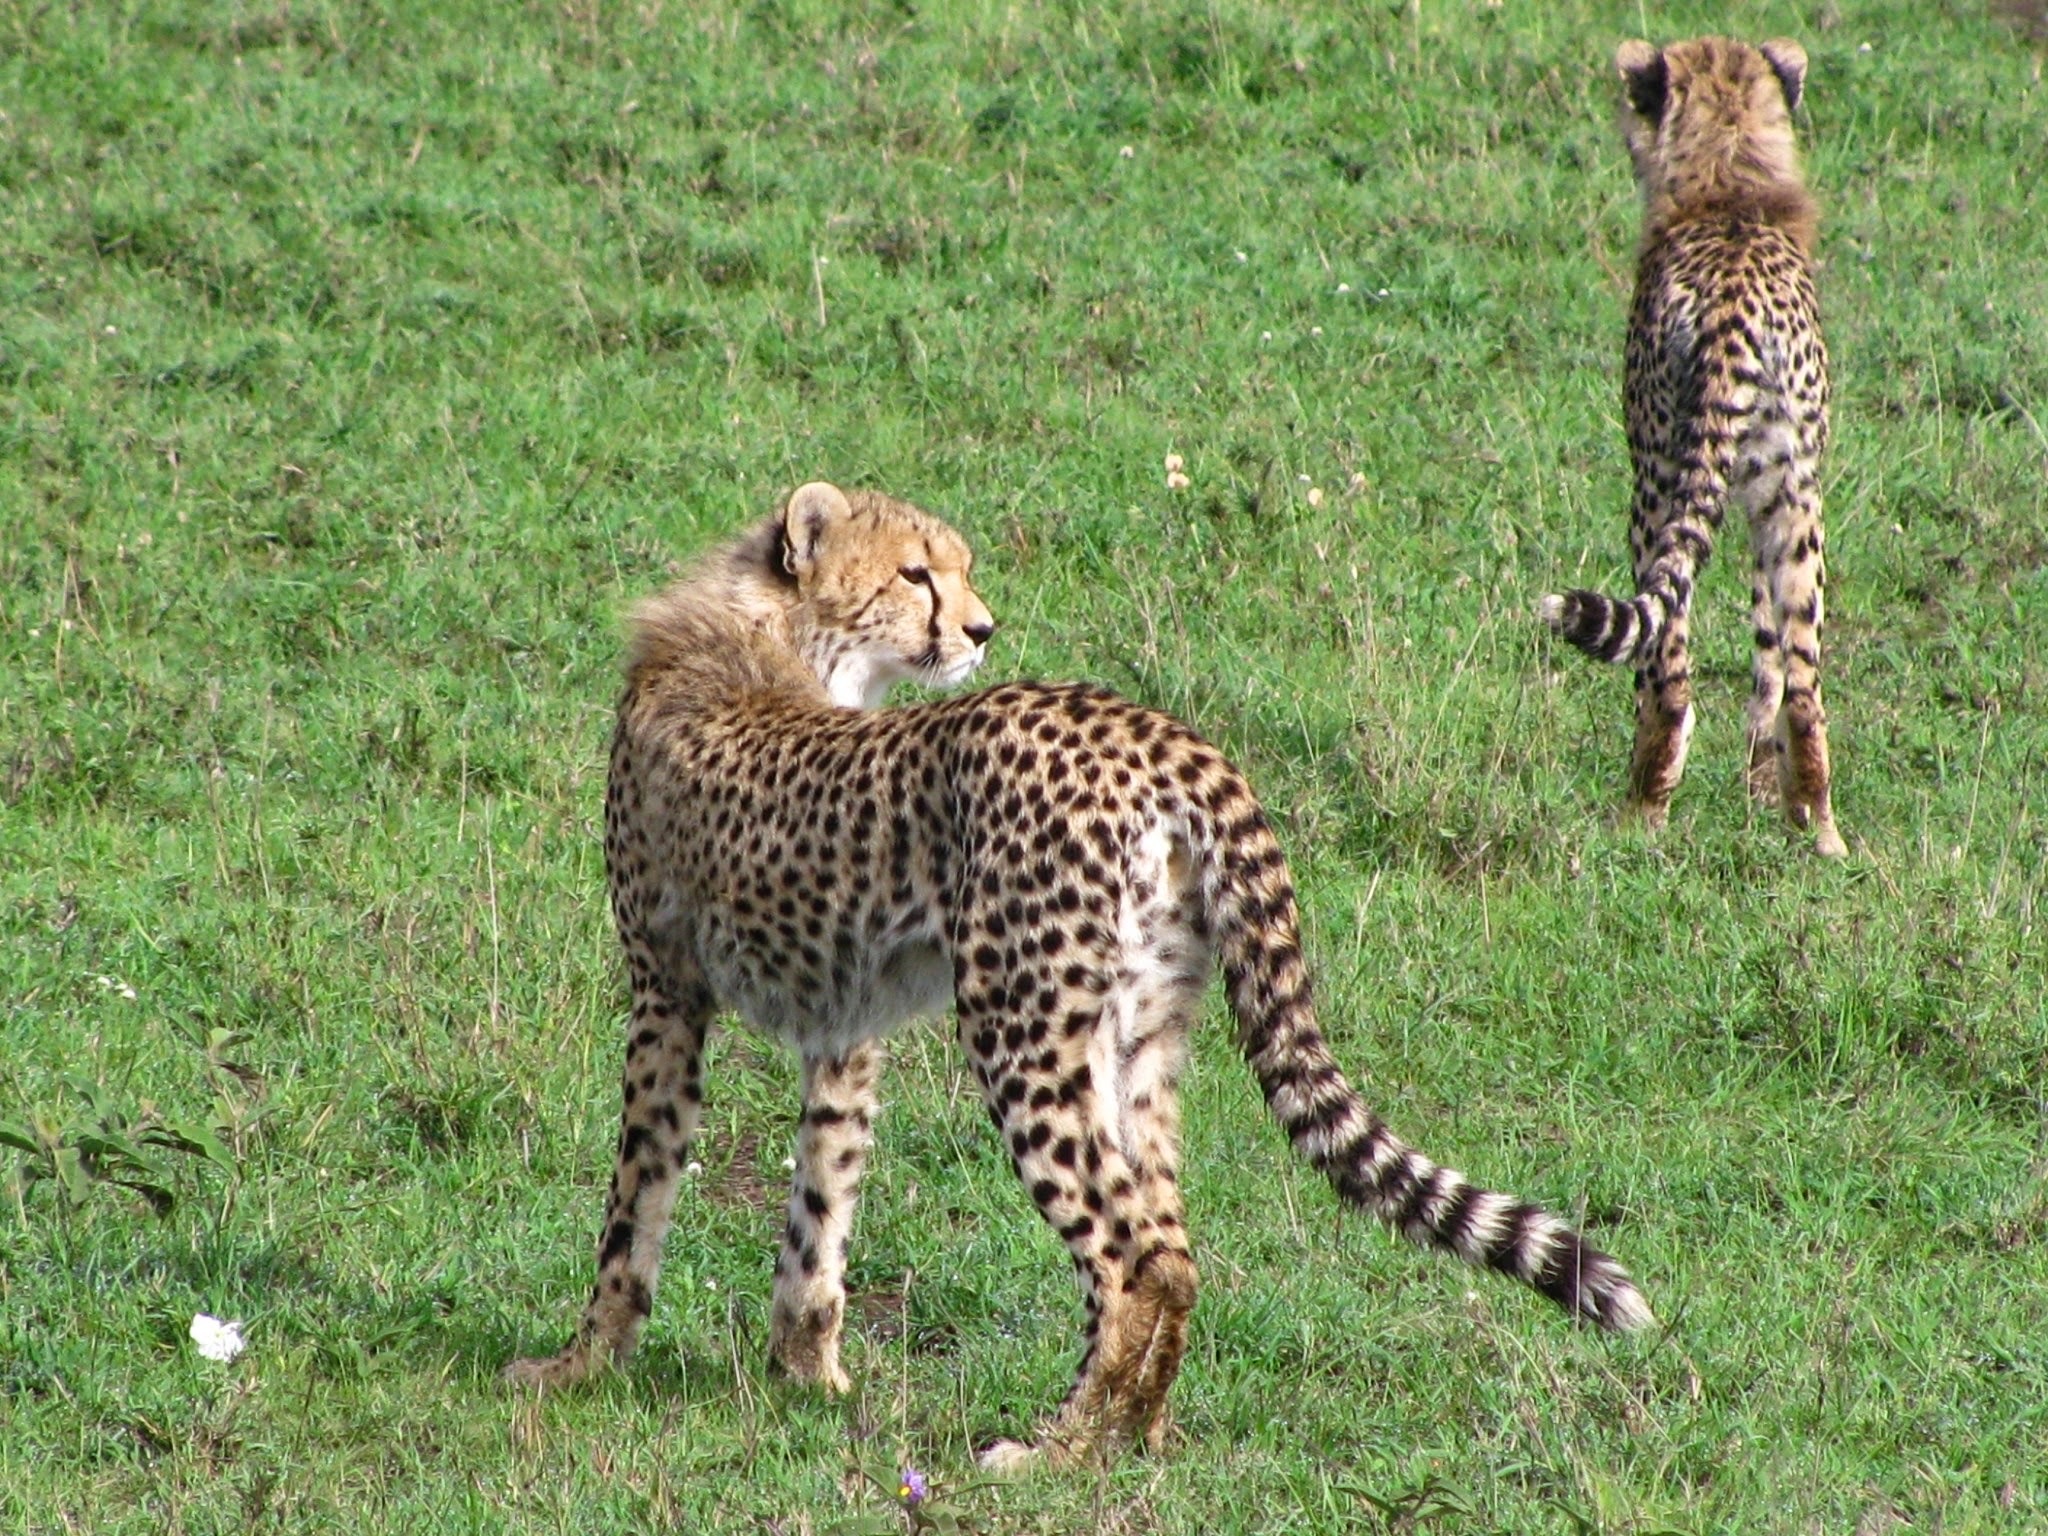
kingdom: Animalia
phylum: Chordata
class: Mammalia
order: Carnivora
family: Felidae
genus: Acinonyx
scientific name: Acinonyx jubatus
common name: Cheetah
